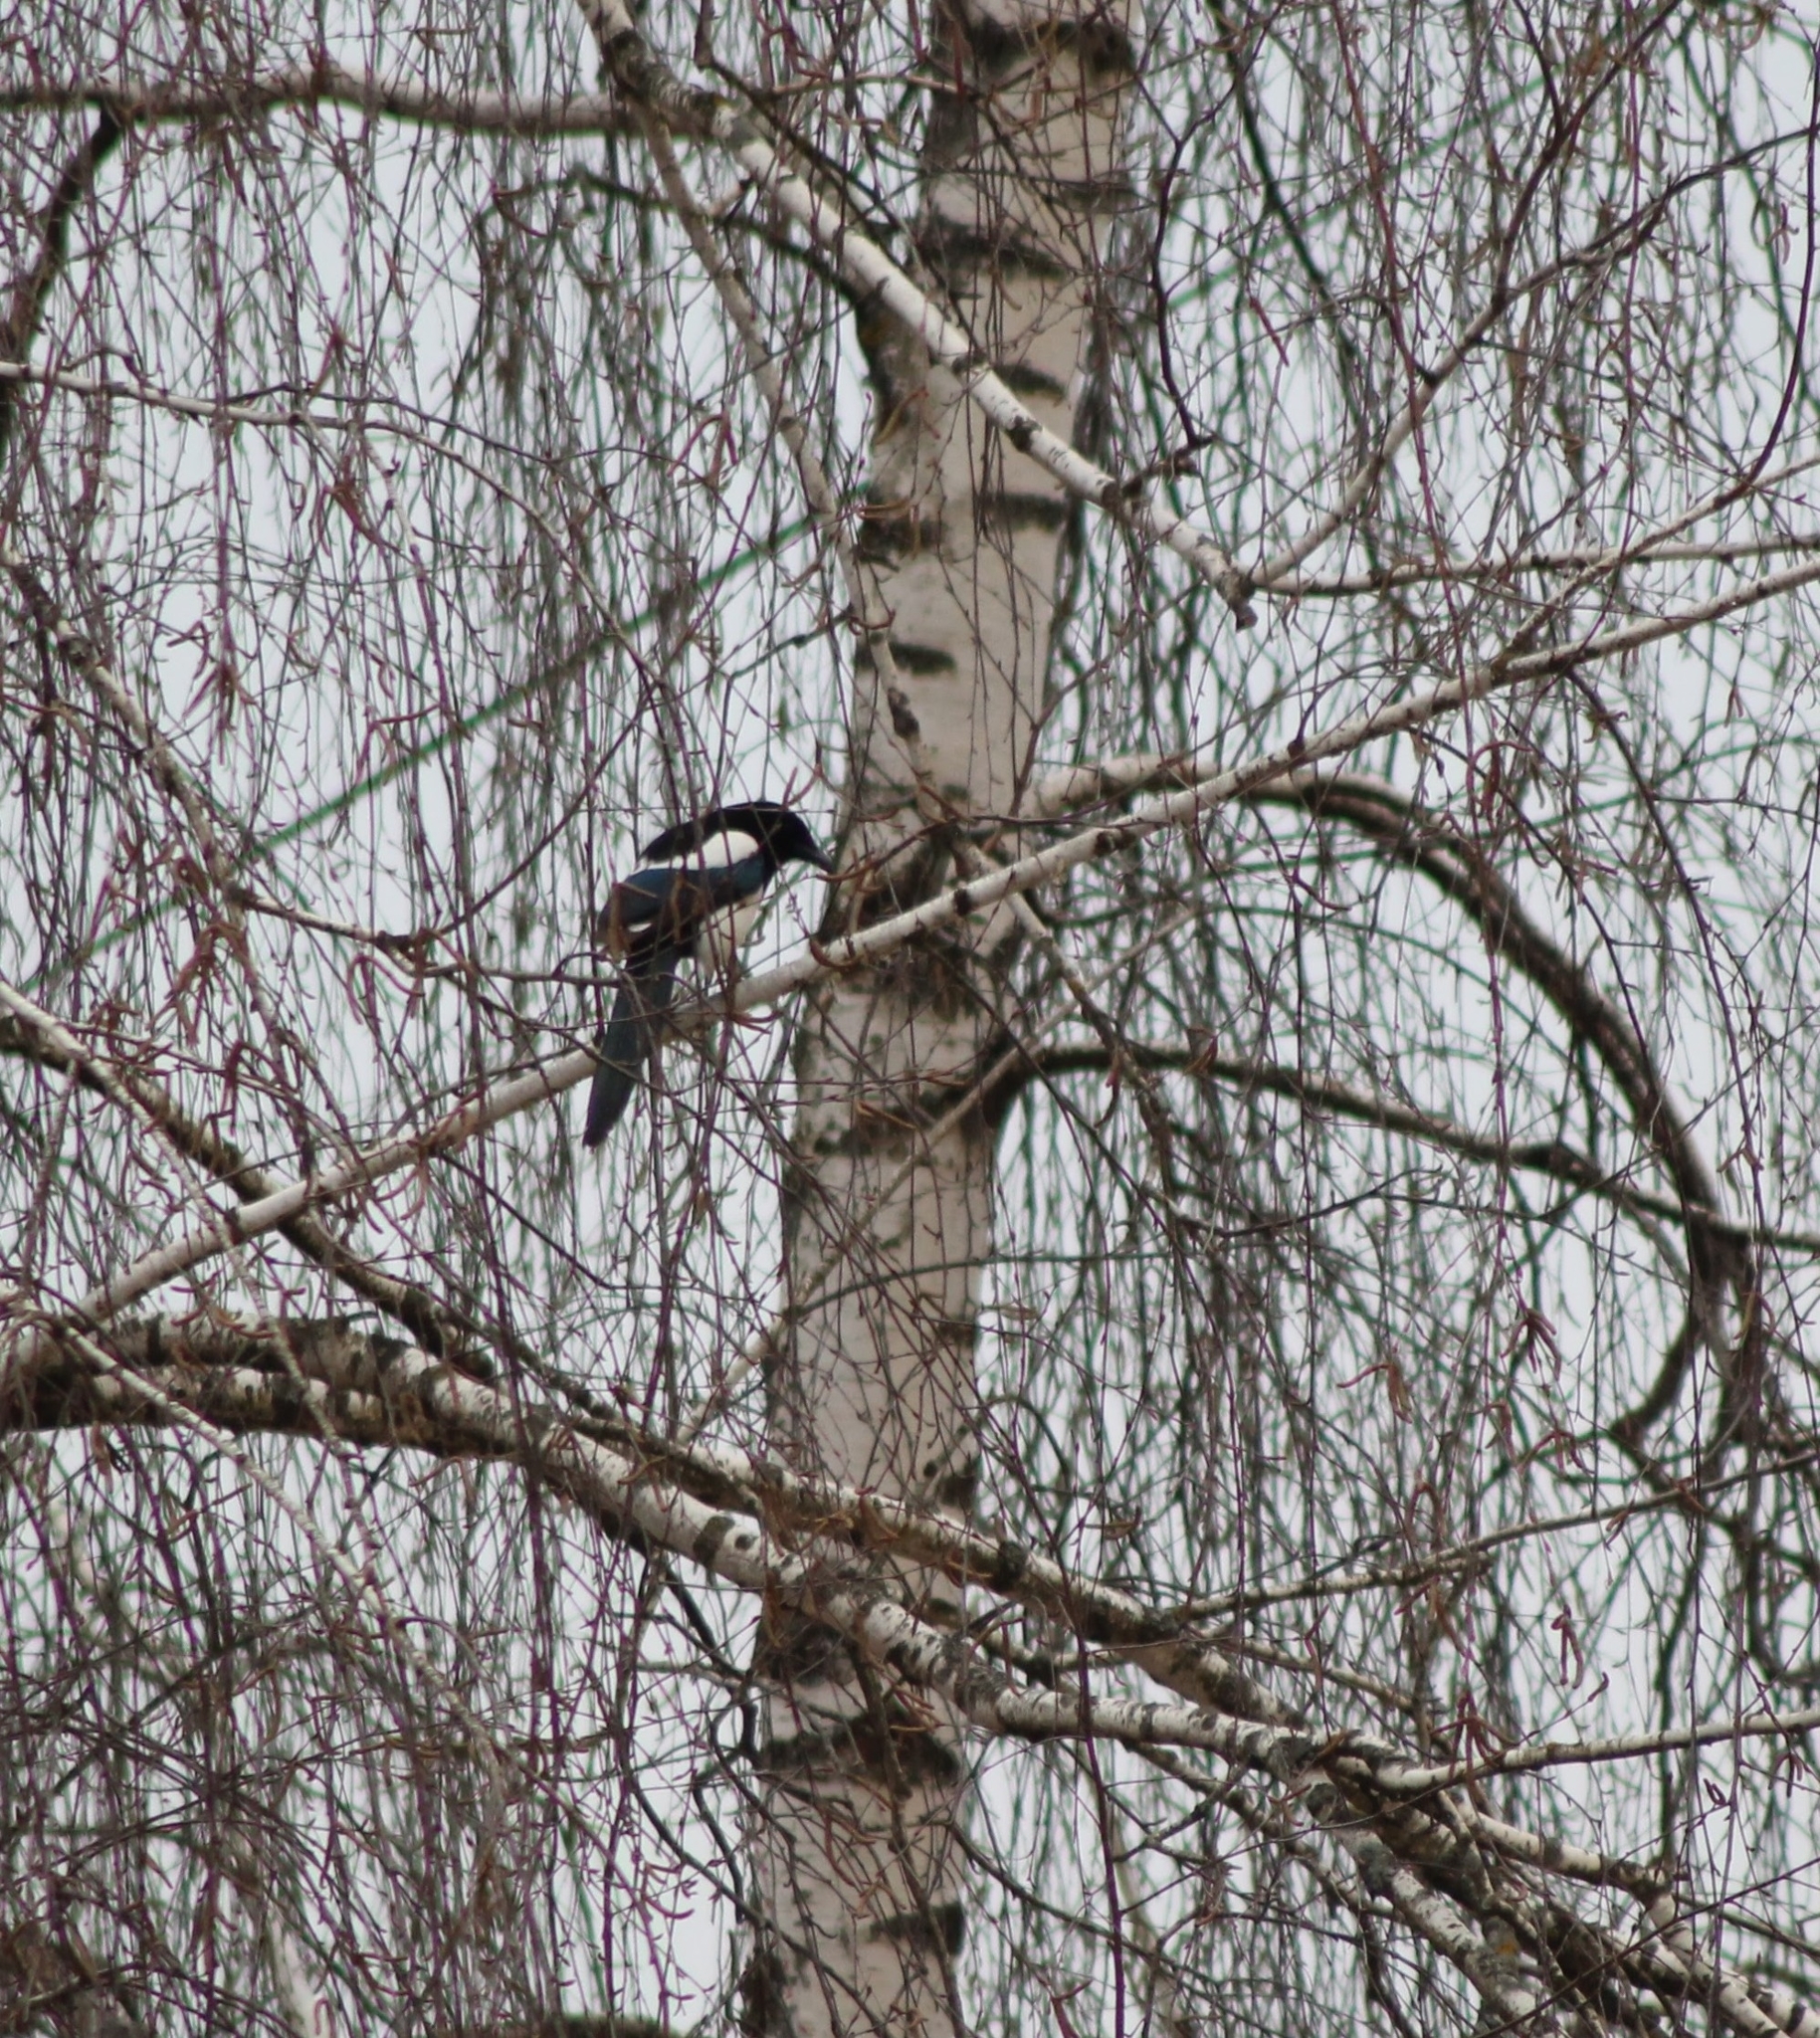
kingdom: Animalia
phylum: Chordata
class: Aves
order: Passeriformes
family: Corvidae
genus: Pica
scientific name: Pica pica
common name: Eurasian magpie
